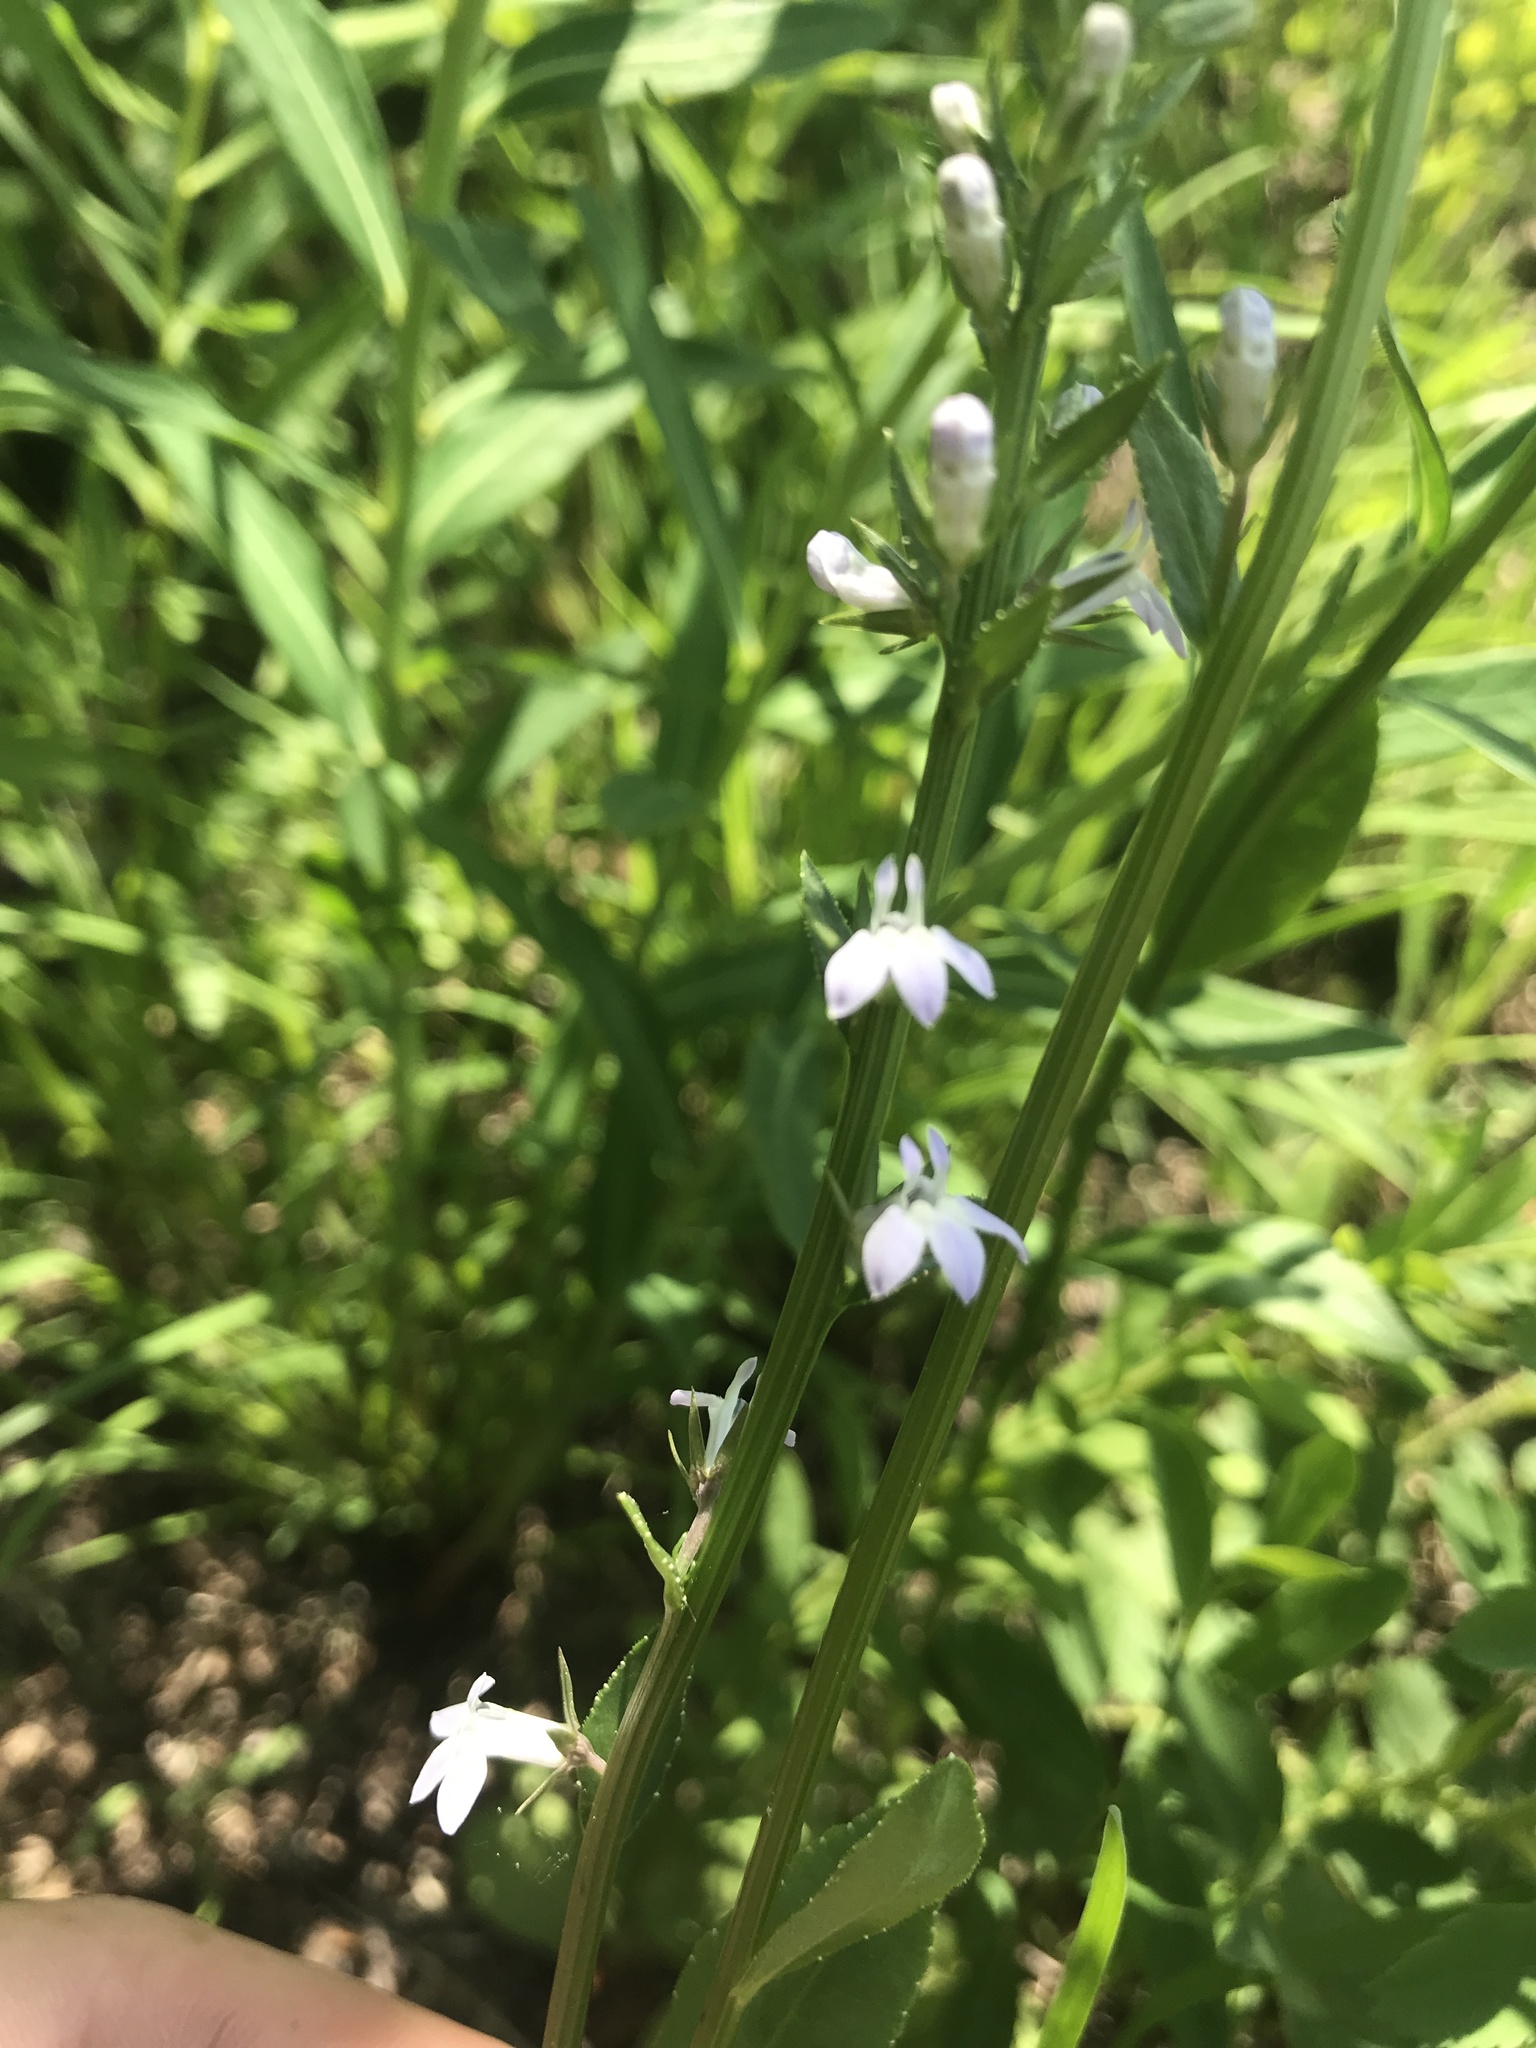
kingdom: Plantae
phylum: Tracheophyta
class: Magnoliopsida
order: Asterales
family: Campanulaceae
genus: Lobelia
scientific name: Lobelia spicata
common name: Pale-spike lobelia
